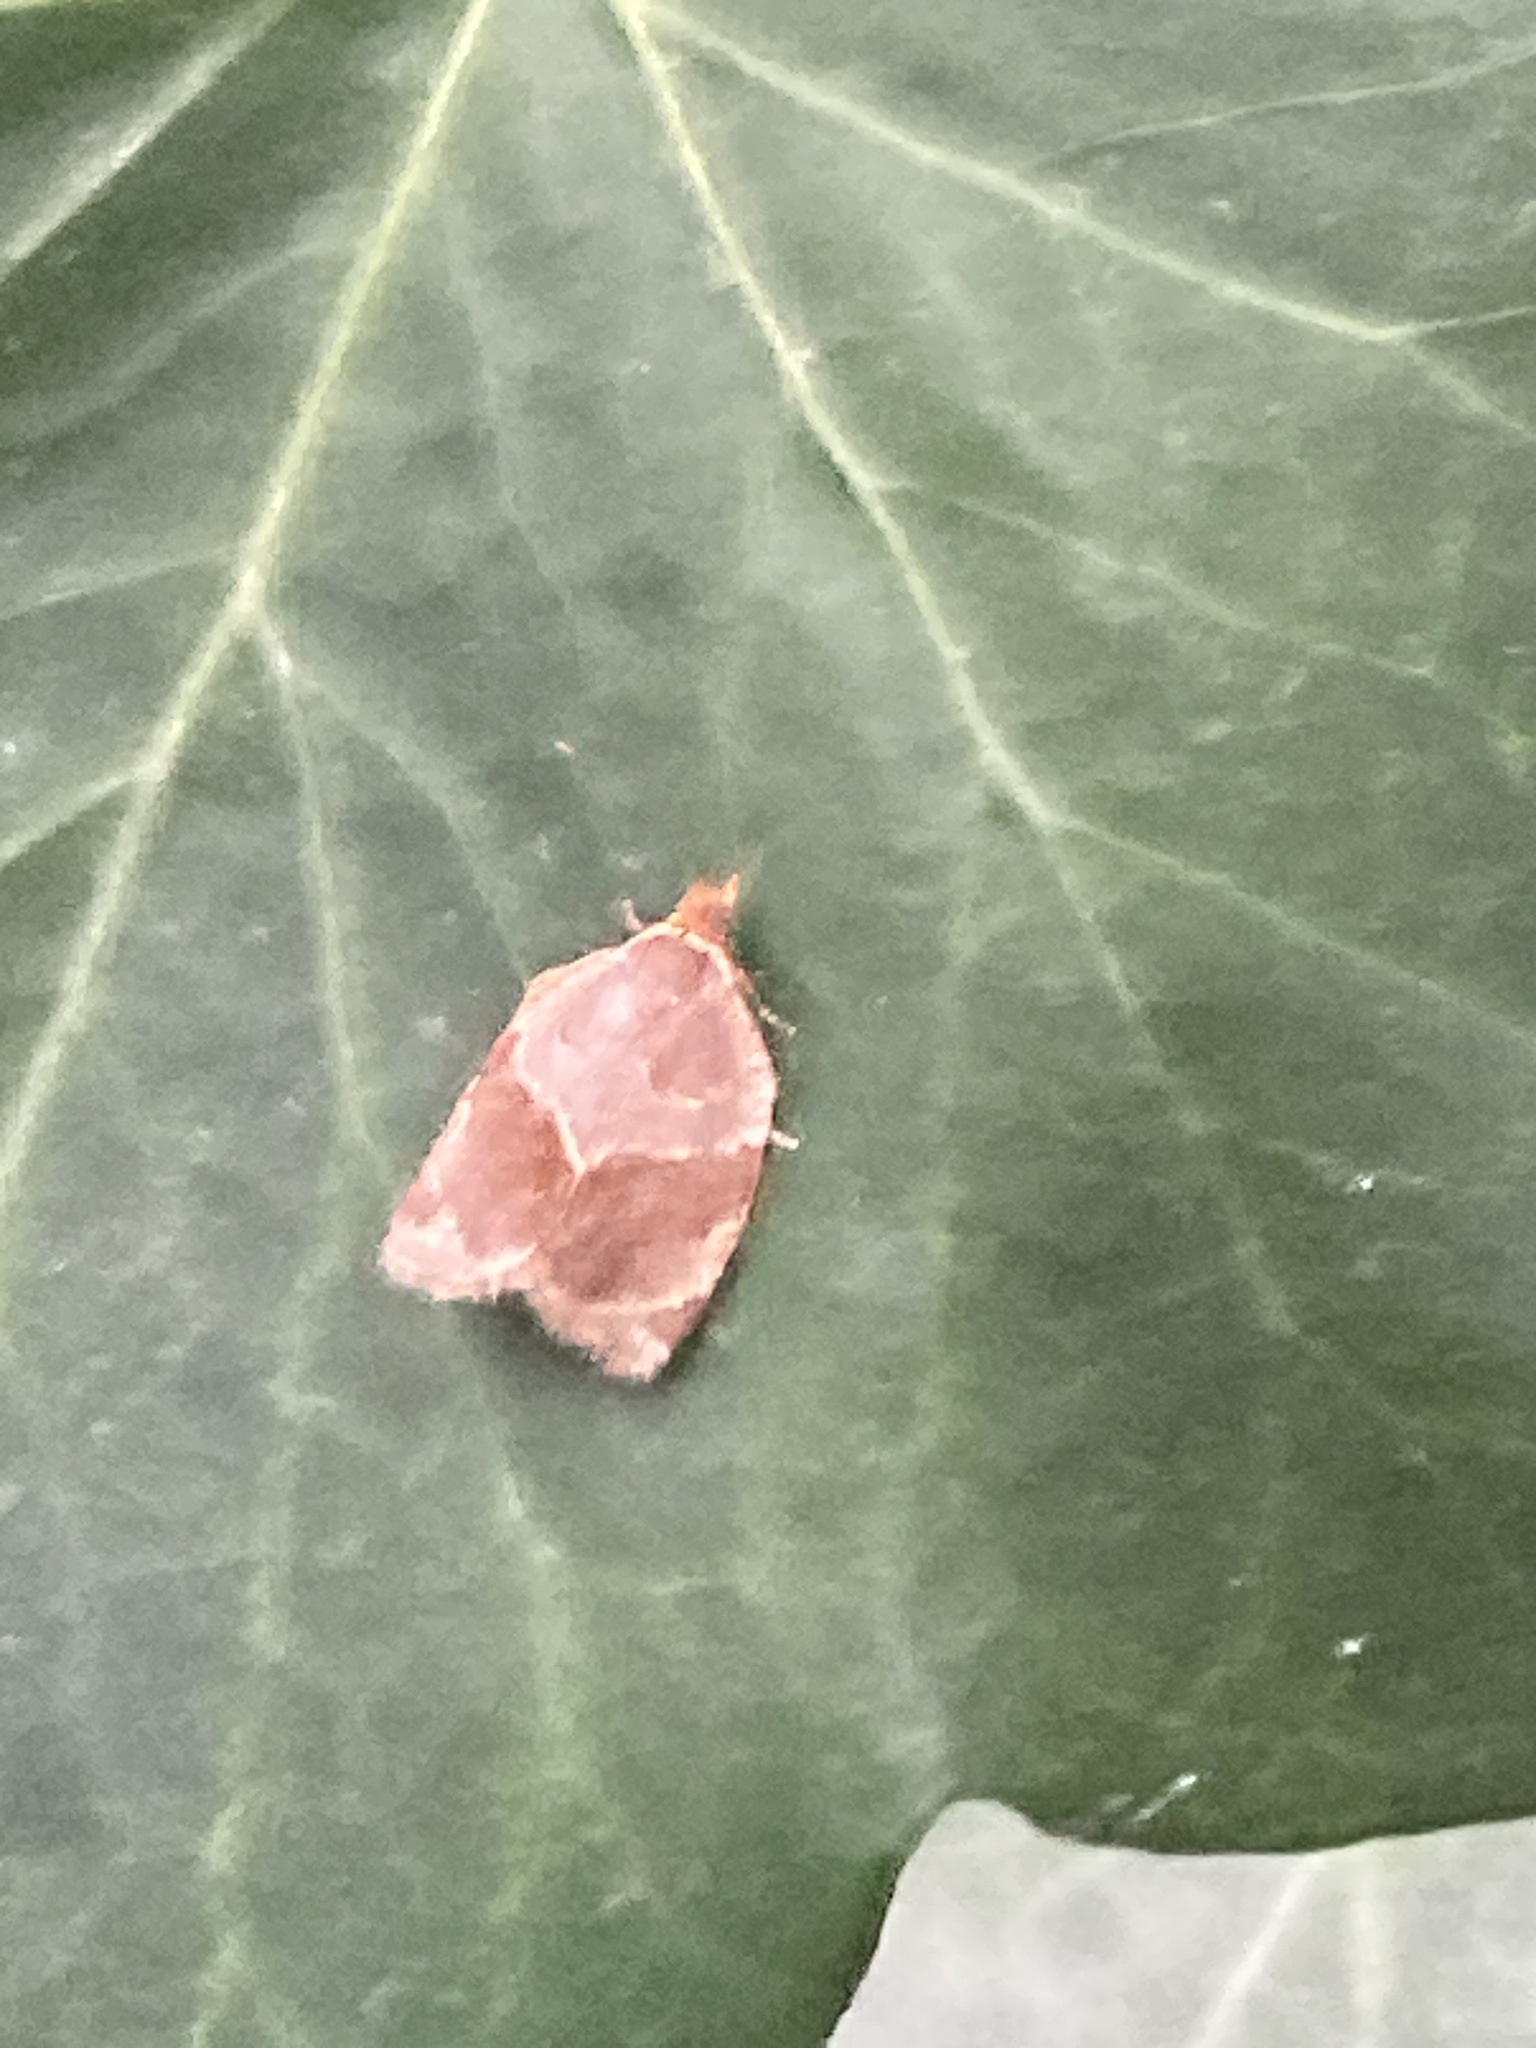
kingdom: Animalia
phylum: Arthropoda
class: Insecta
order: Lepidoptera
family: Tortricidae
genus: Clepsis
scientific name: Clepsis dumicolana
